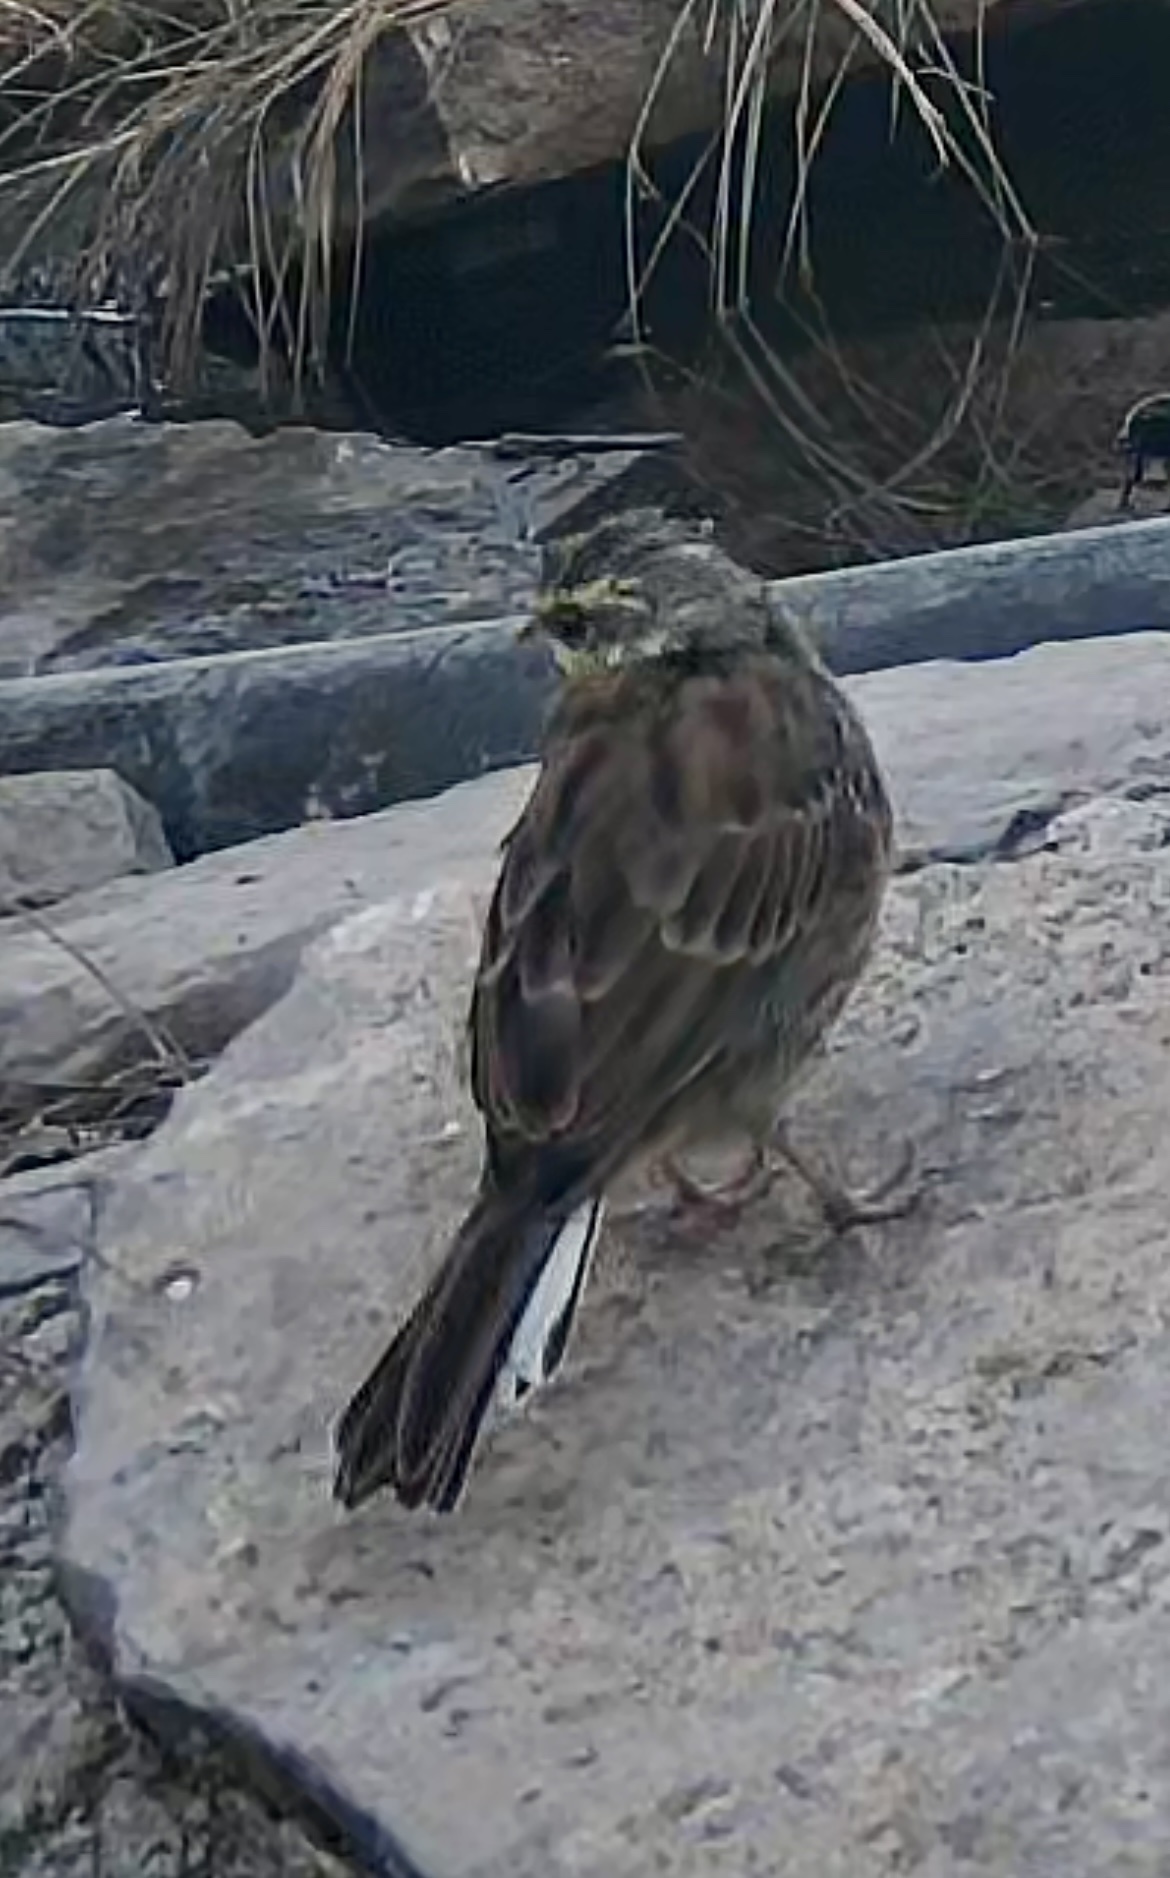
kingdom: Animalia
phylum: Chordata
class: Aves
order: Passeriformes
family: Emberizidae
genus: Emberiza
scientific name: Emberiza cirlus
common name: Cirl bunting
